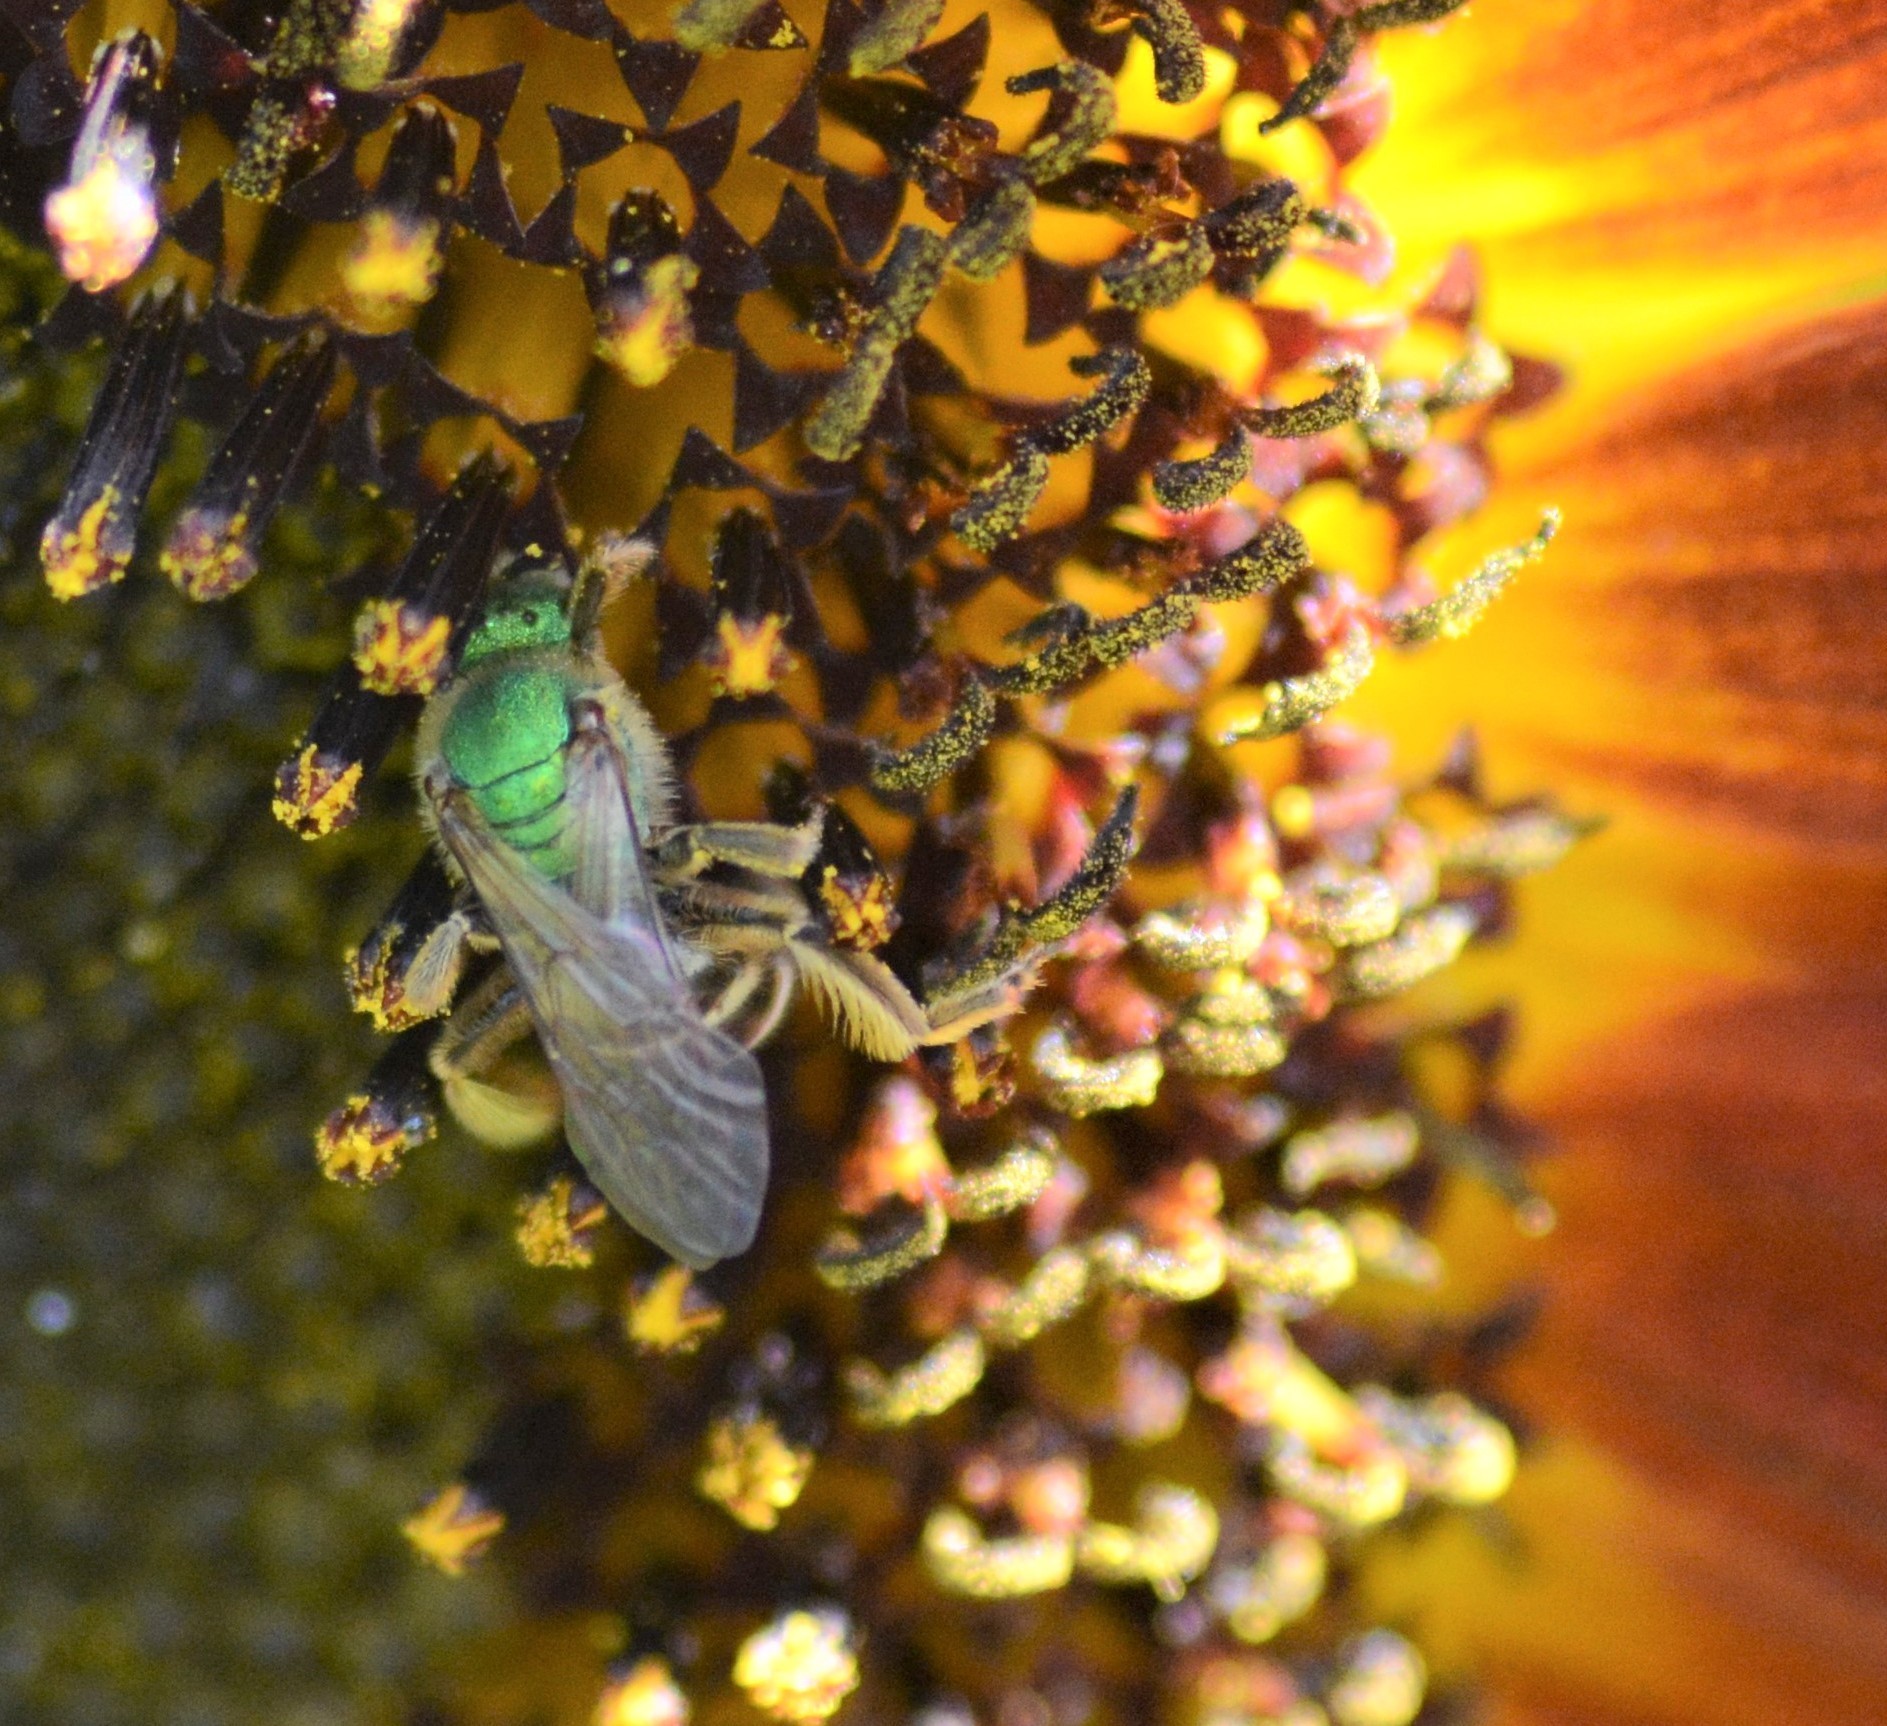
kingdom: Animalia
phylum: Arthropoda
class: Insecta
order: Hymenoptera
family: Halictidae
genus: Agapostemon
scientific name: Agapostemon virescens
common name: Bicolored striped sweat bee
